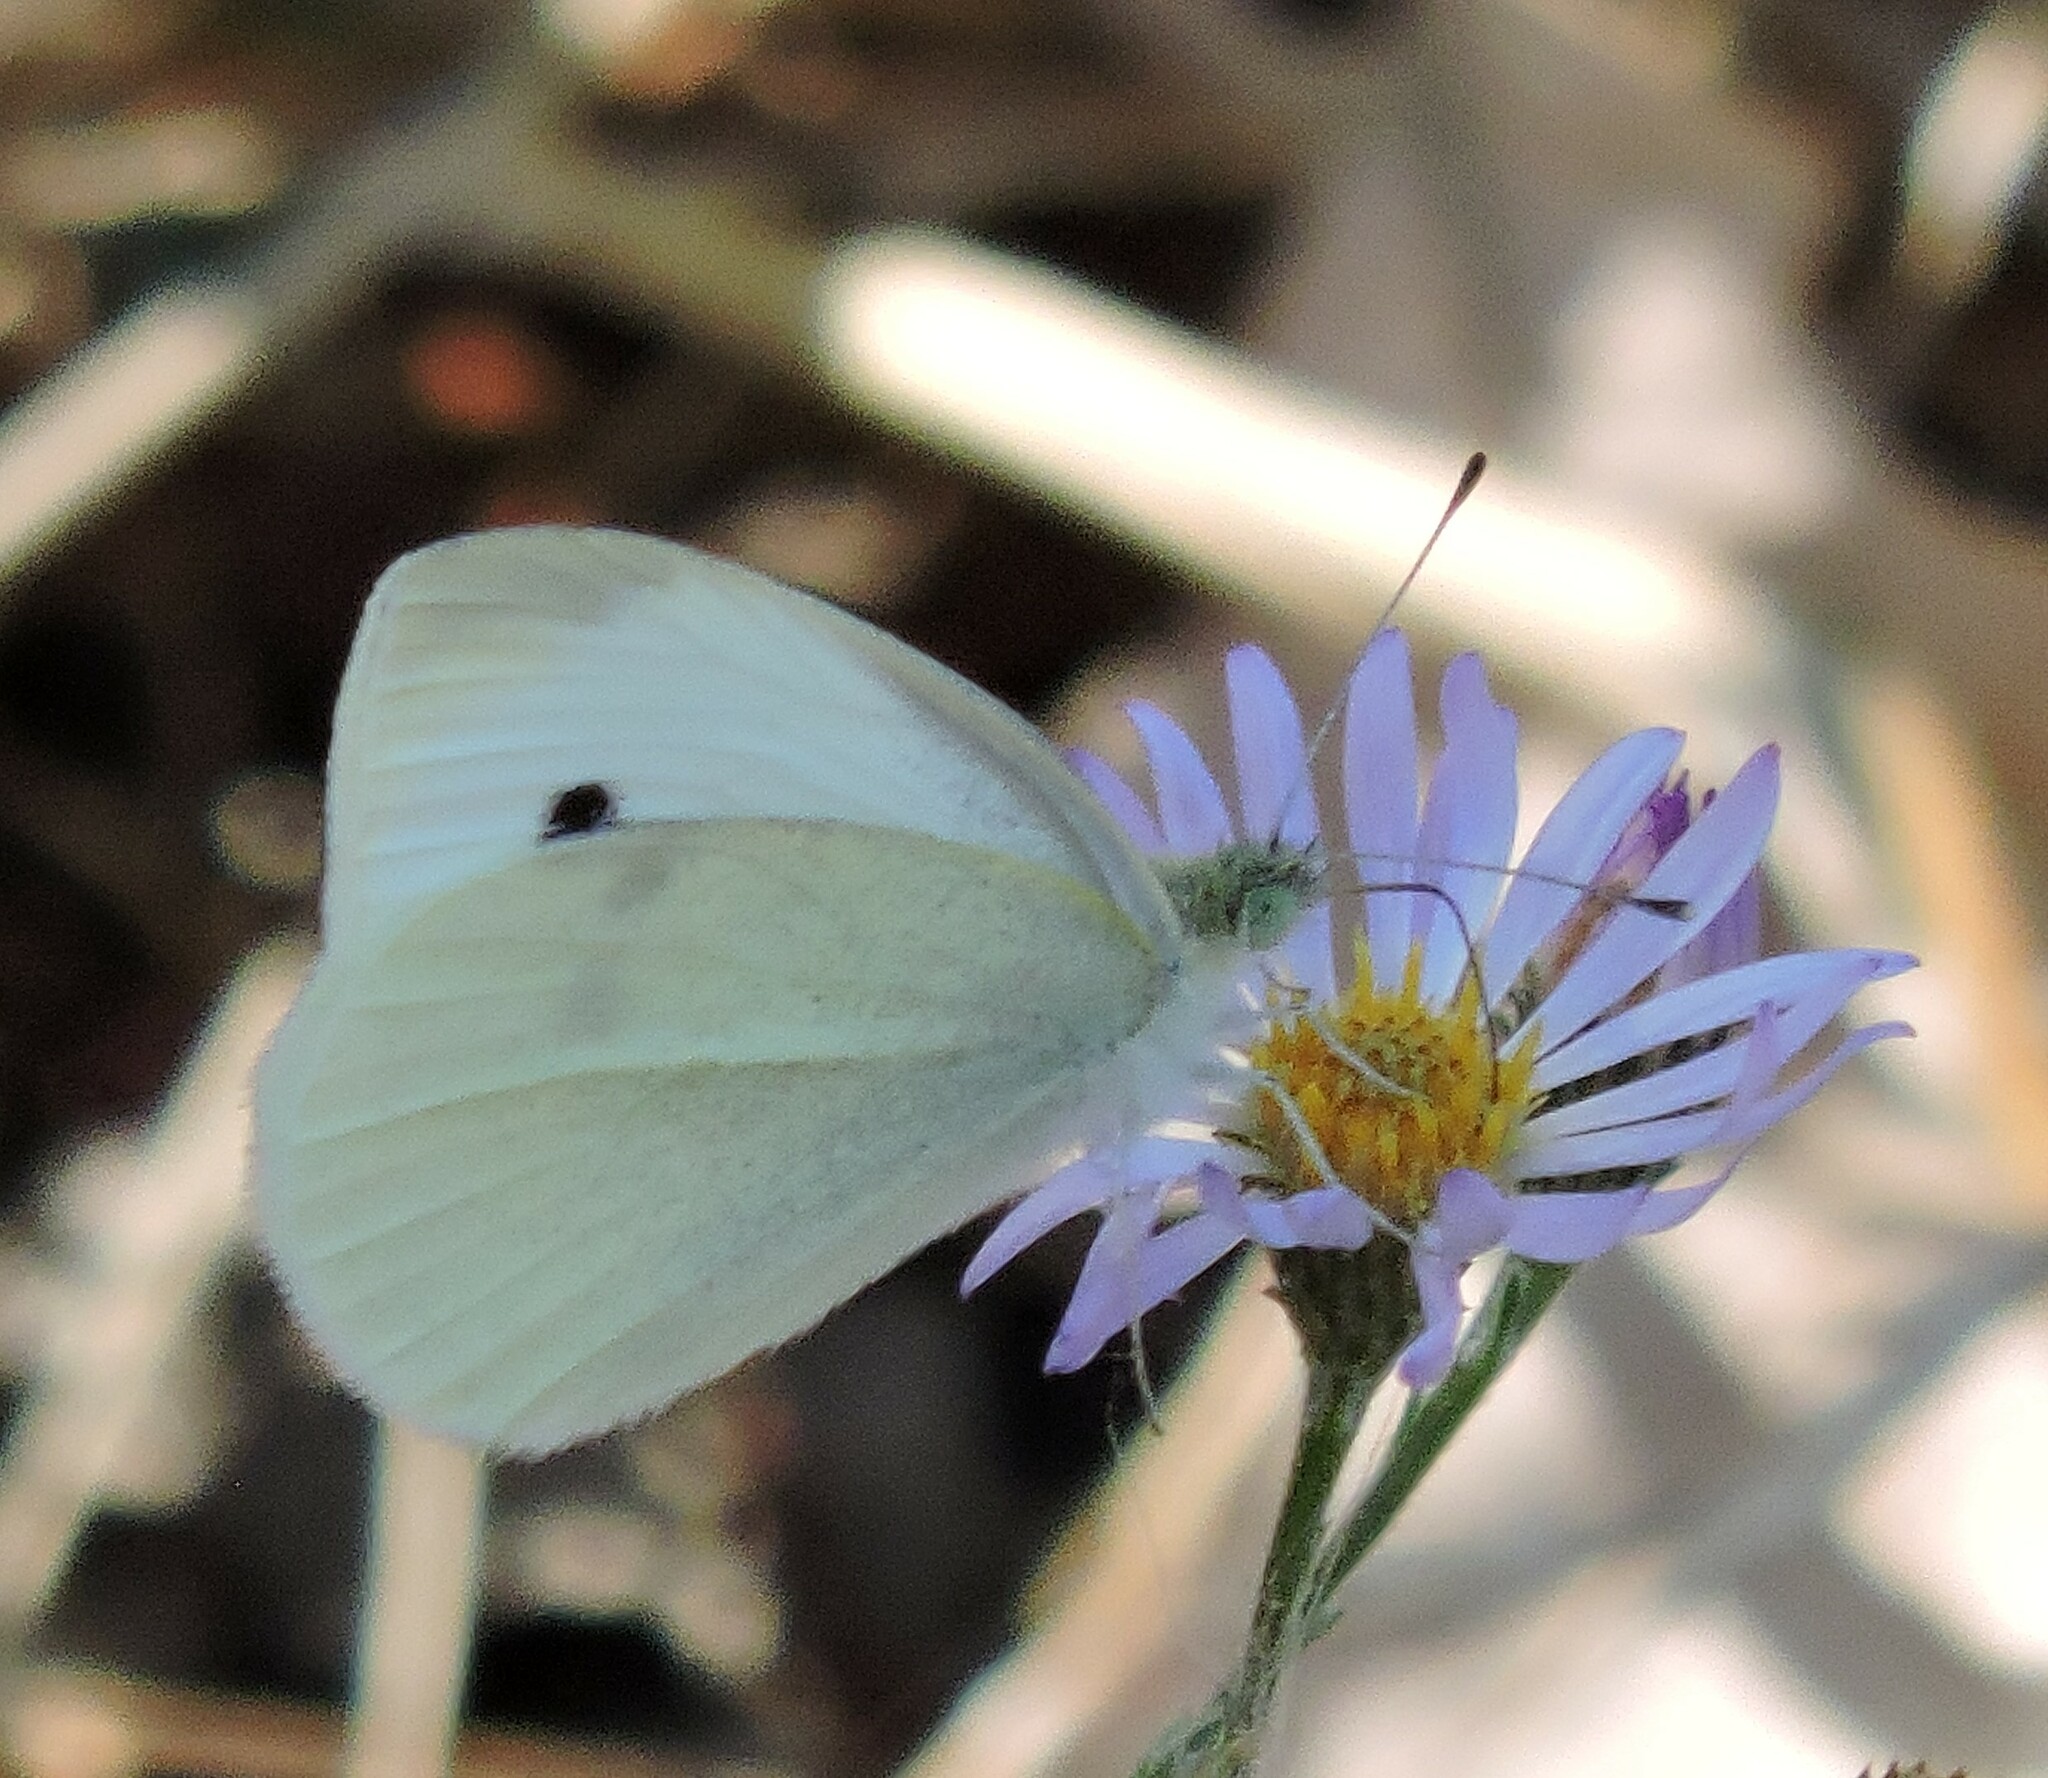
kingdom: Animalia
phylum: Arthropoda
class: Insecta
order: Lepidoptera
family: Pieridae
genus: Pieris
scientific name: Pieris rapae
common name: Small white
